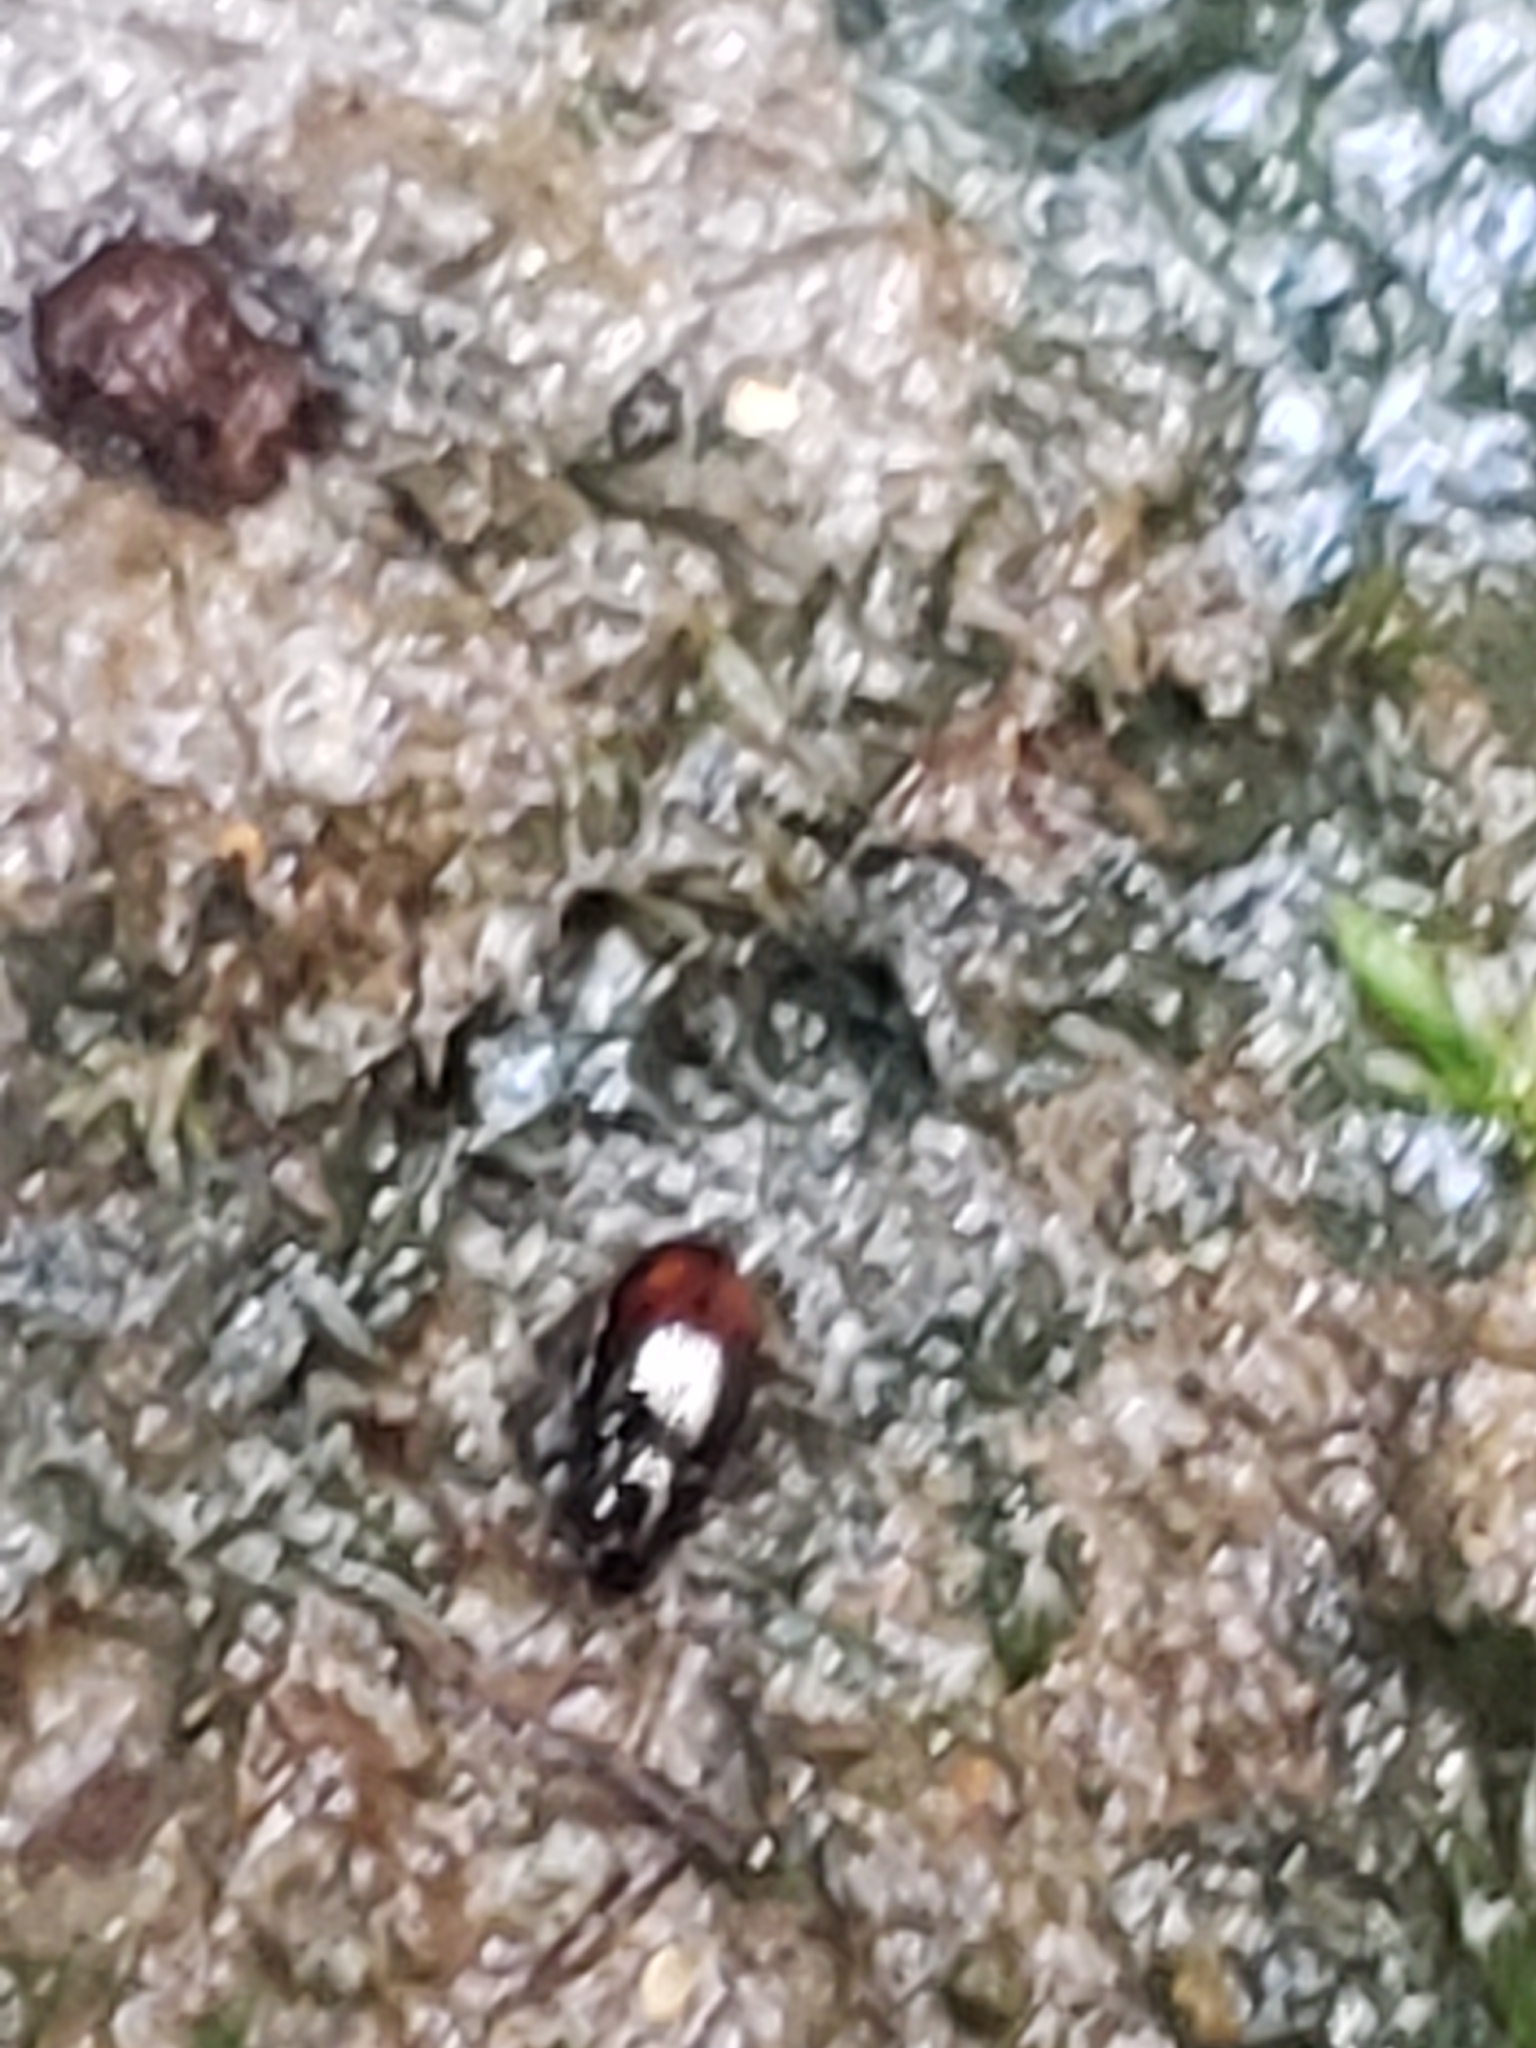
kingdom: Animalia
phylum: Arthropoda
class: Insecta
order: Coleoptera
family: Carabidae
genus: Mioptachys
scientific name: Mioptachys flavicauda
